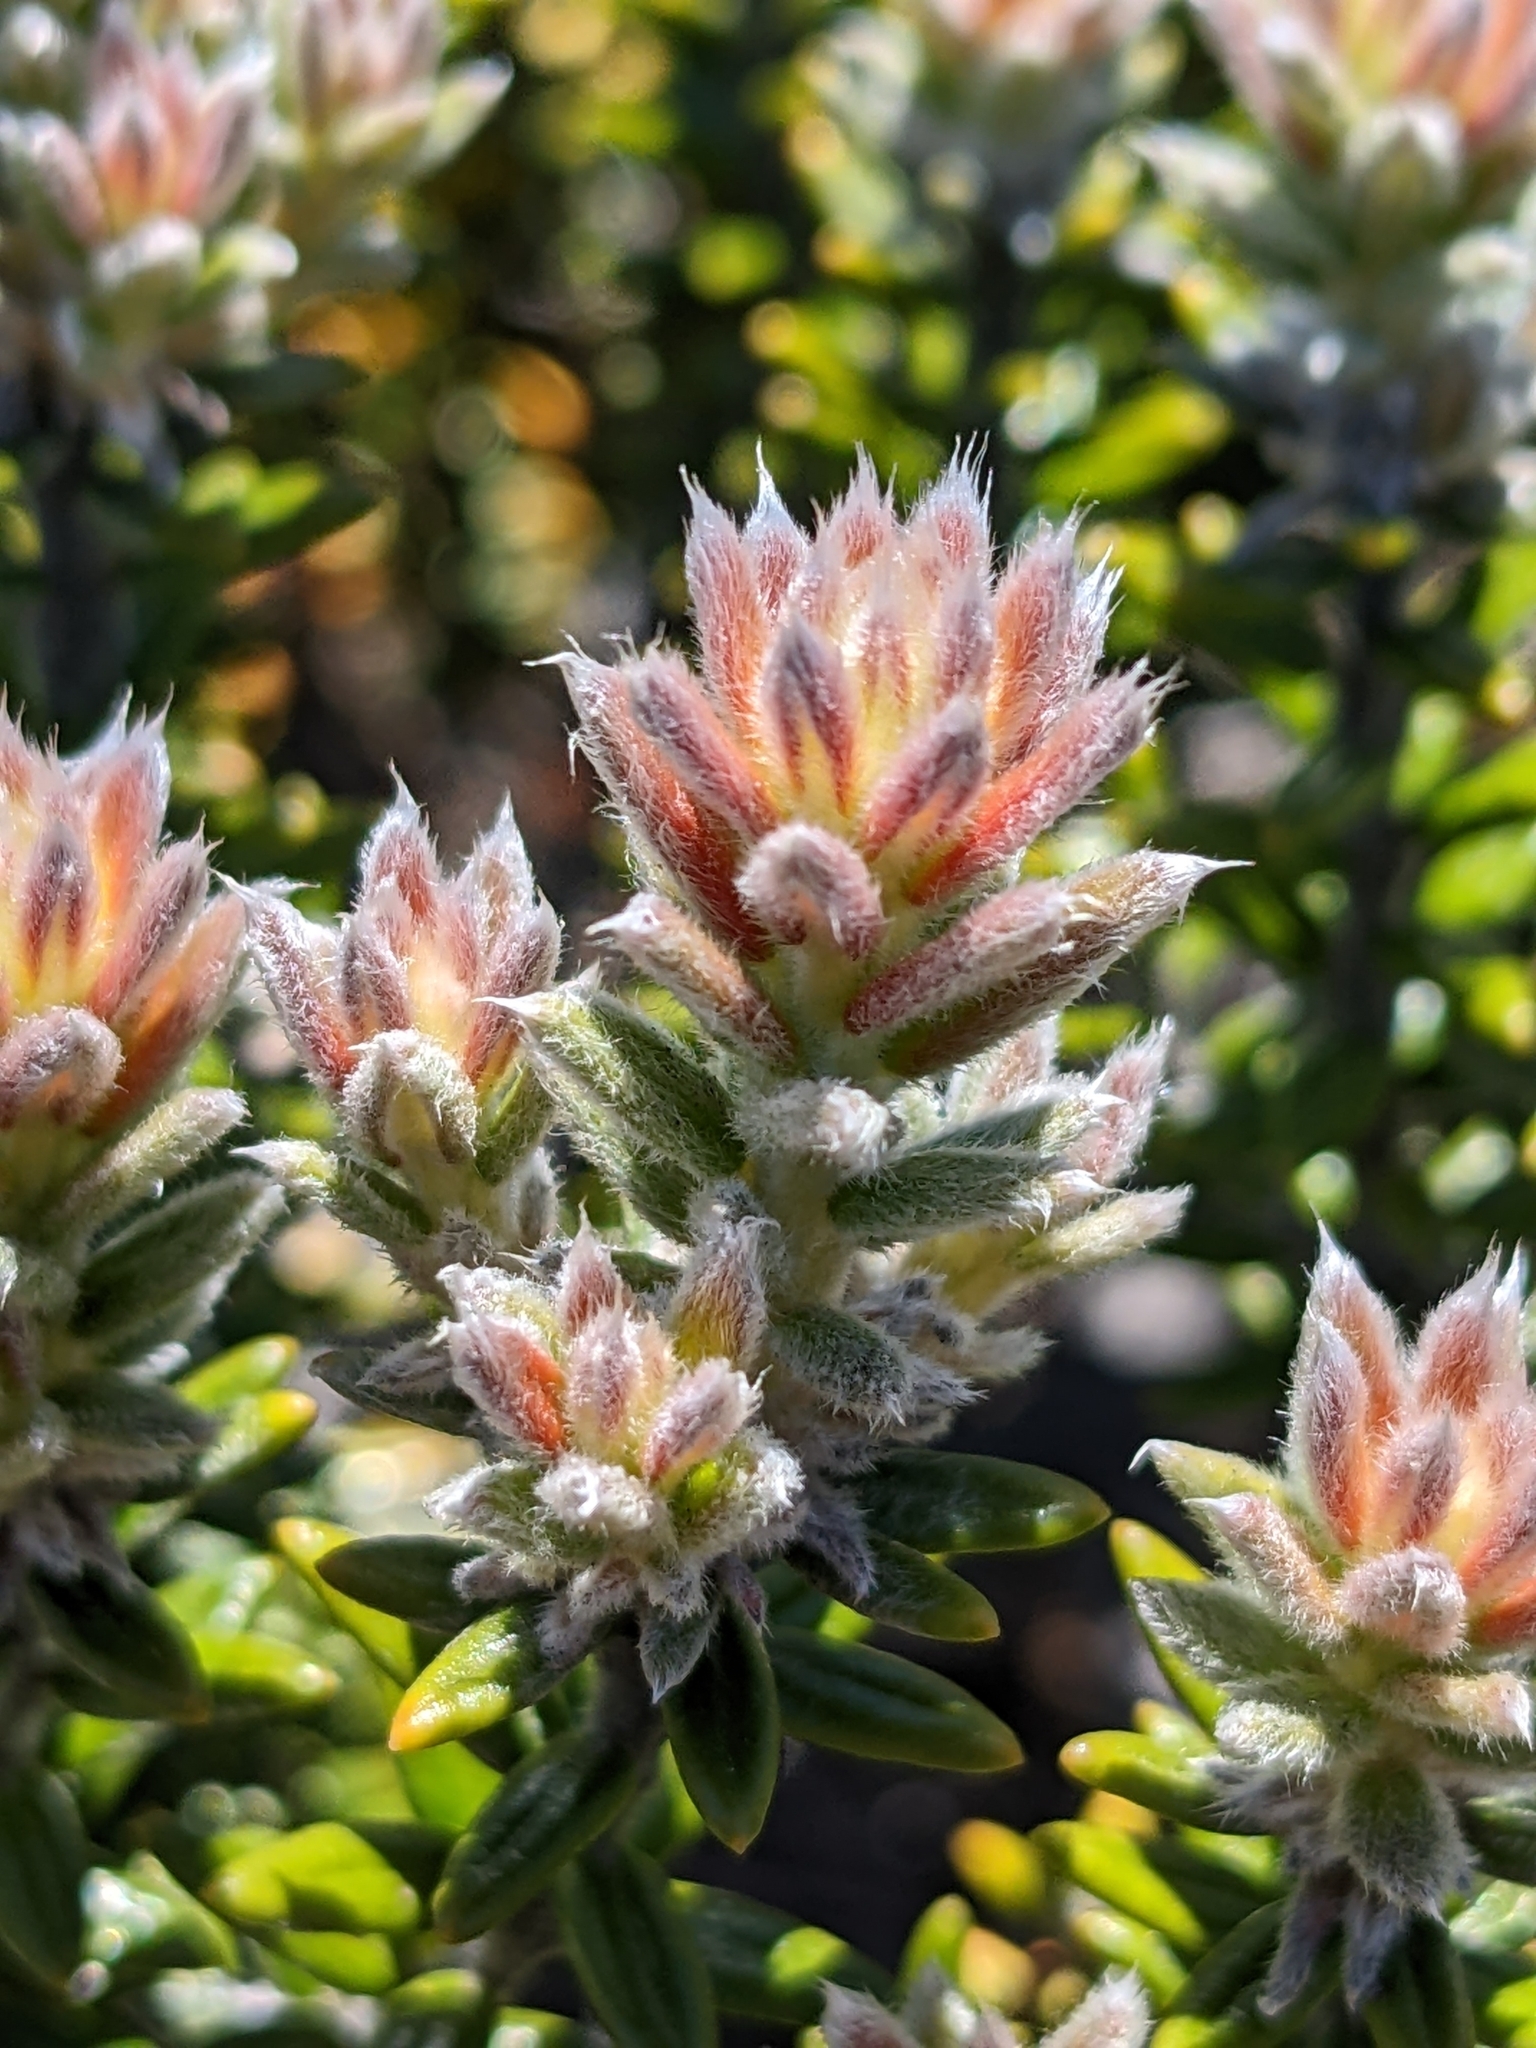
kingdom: Plantae
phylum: Tracheophyta
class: Magnoliopsida
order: Rosales
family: Rhamnaceae
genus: Phylica
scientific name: Phylica nitida
